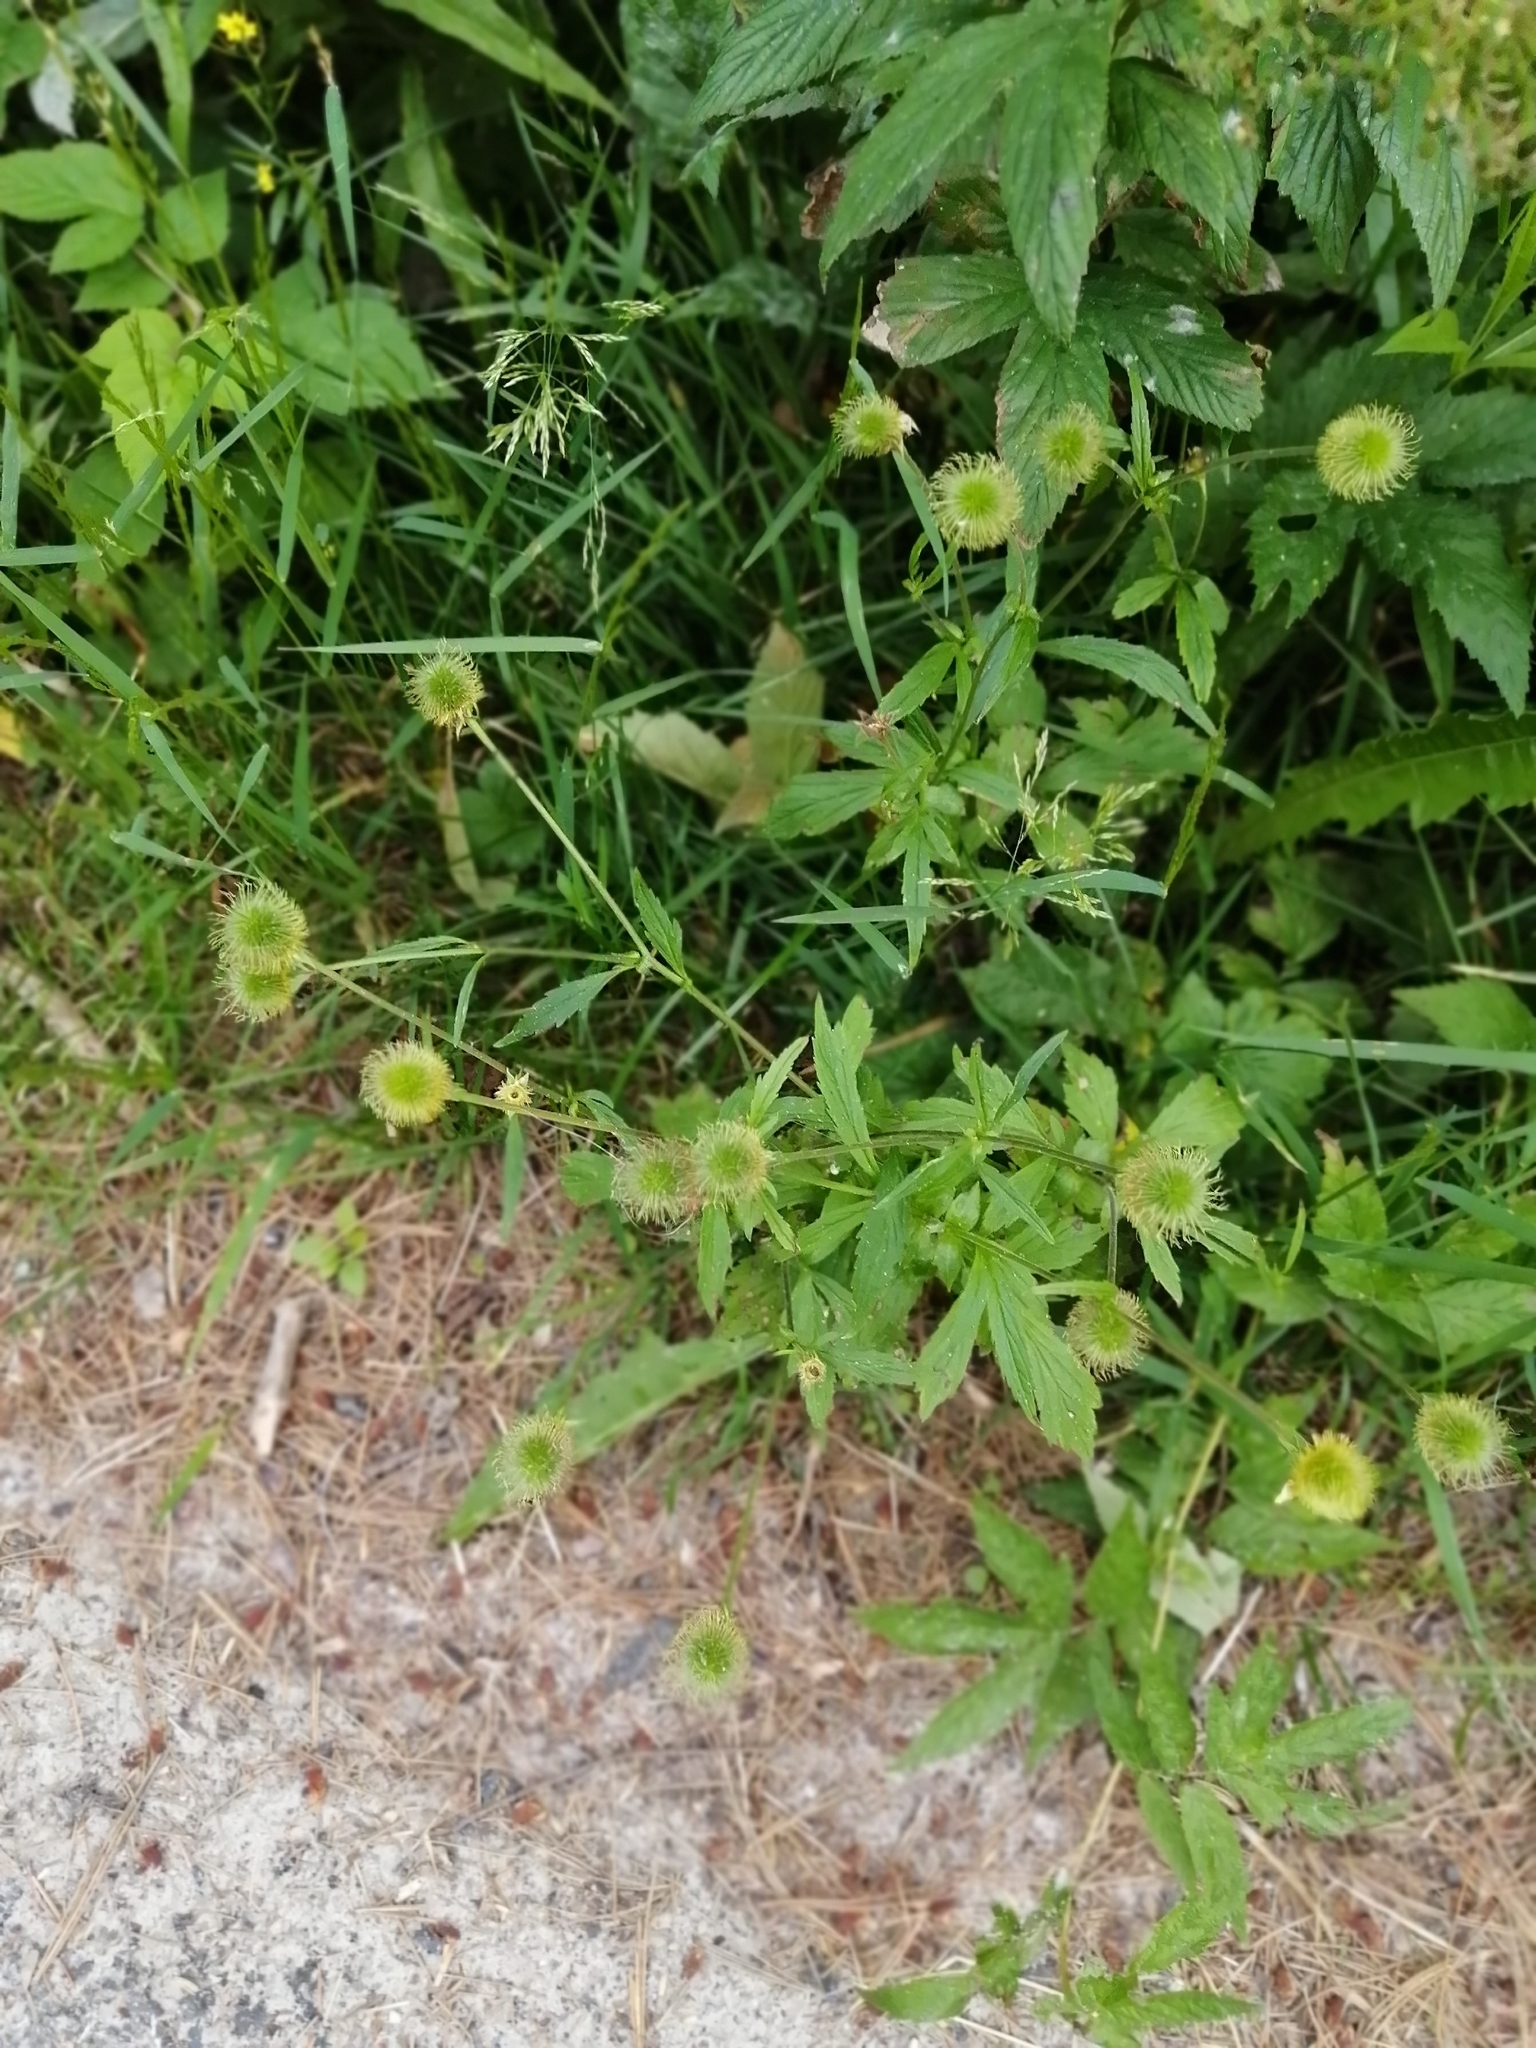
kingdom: Plantae
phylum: Tracheophyta
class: Magnoliopsida
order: Rosales
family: Rosaceae
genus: Geum
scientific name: Geum aleppicum
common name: Yellow avens
